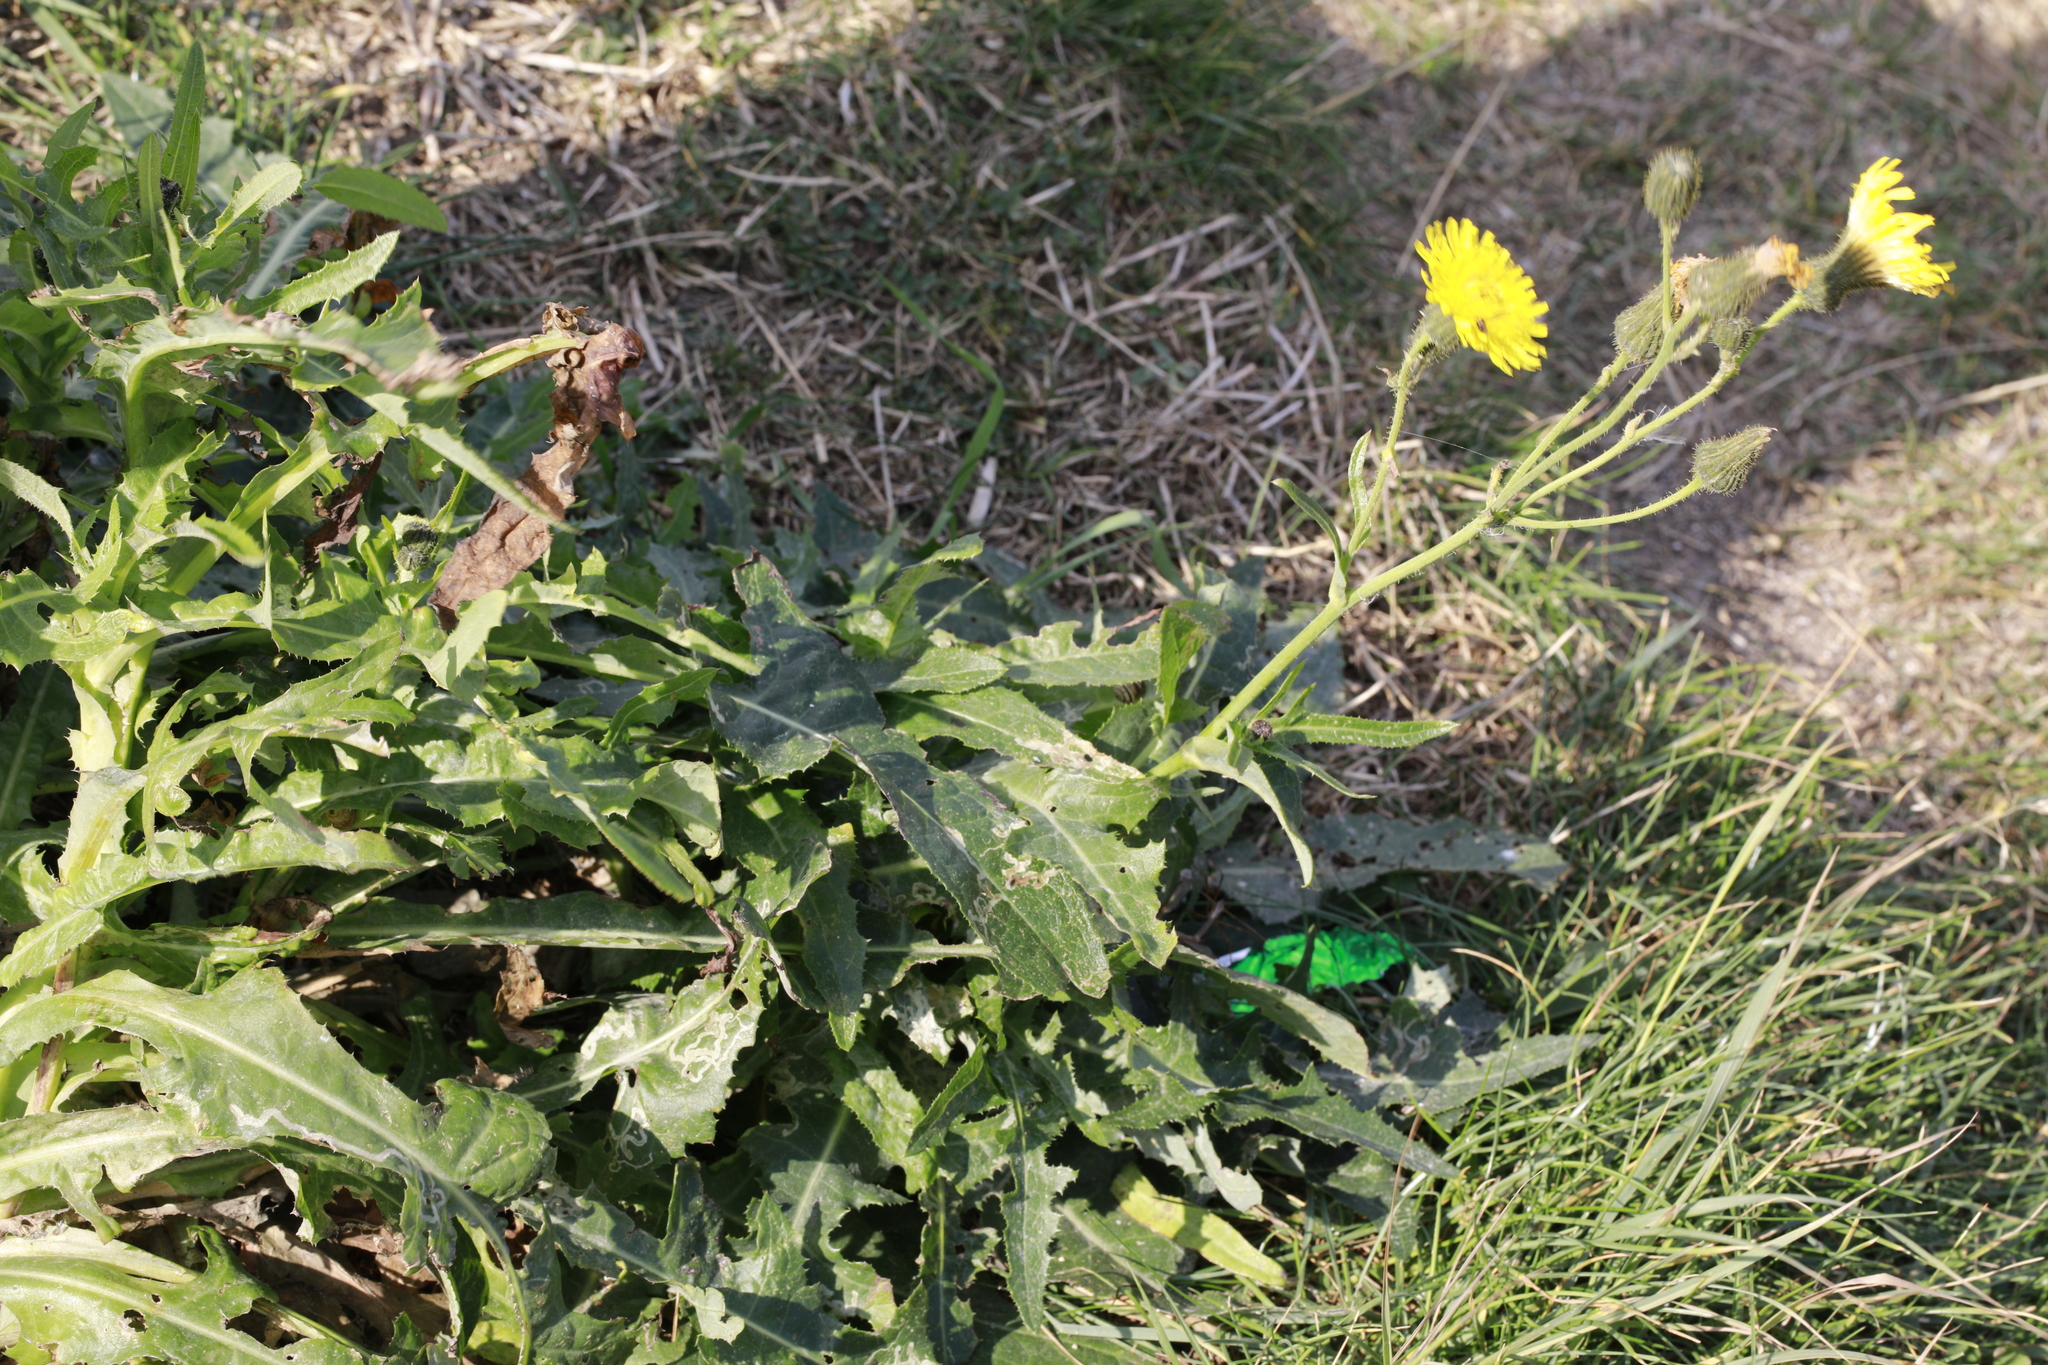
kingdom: Plantae
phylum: Tracheophyta
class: Magnoliopsida
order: Asterales
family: Asteraceae
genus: Sonchus
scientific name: Sonchus arvensis
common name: Perennial sow-thistle
